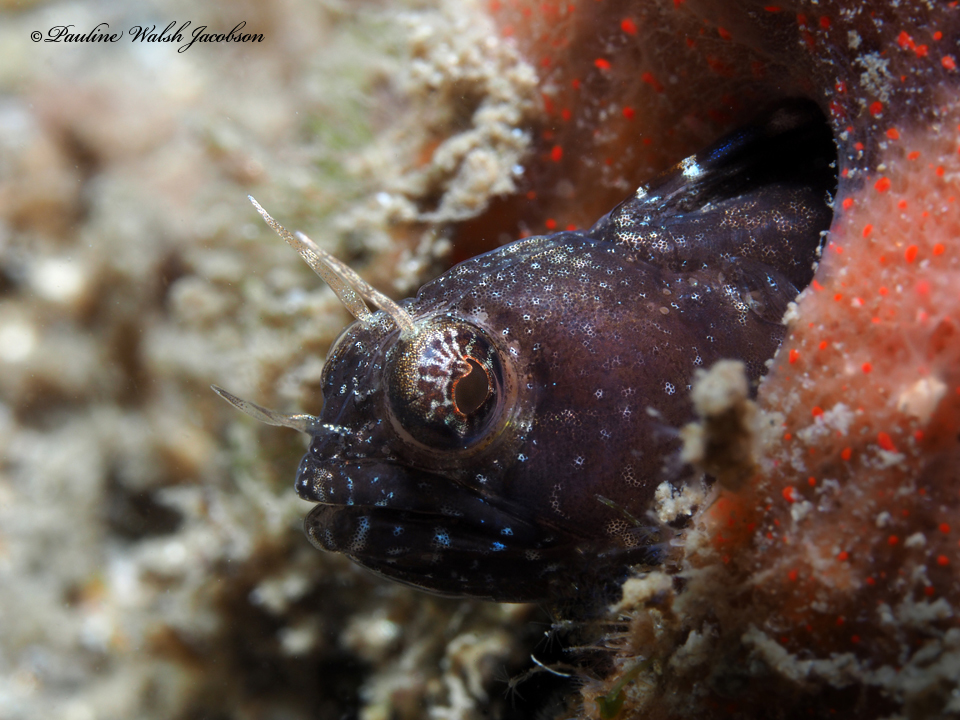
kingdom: Animalia
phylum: Chordata
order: Perciformes
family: Chaenopsidae
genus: Emblemaria
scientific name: Emblemaria pandionis
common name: Sailfin blenny
